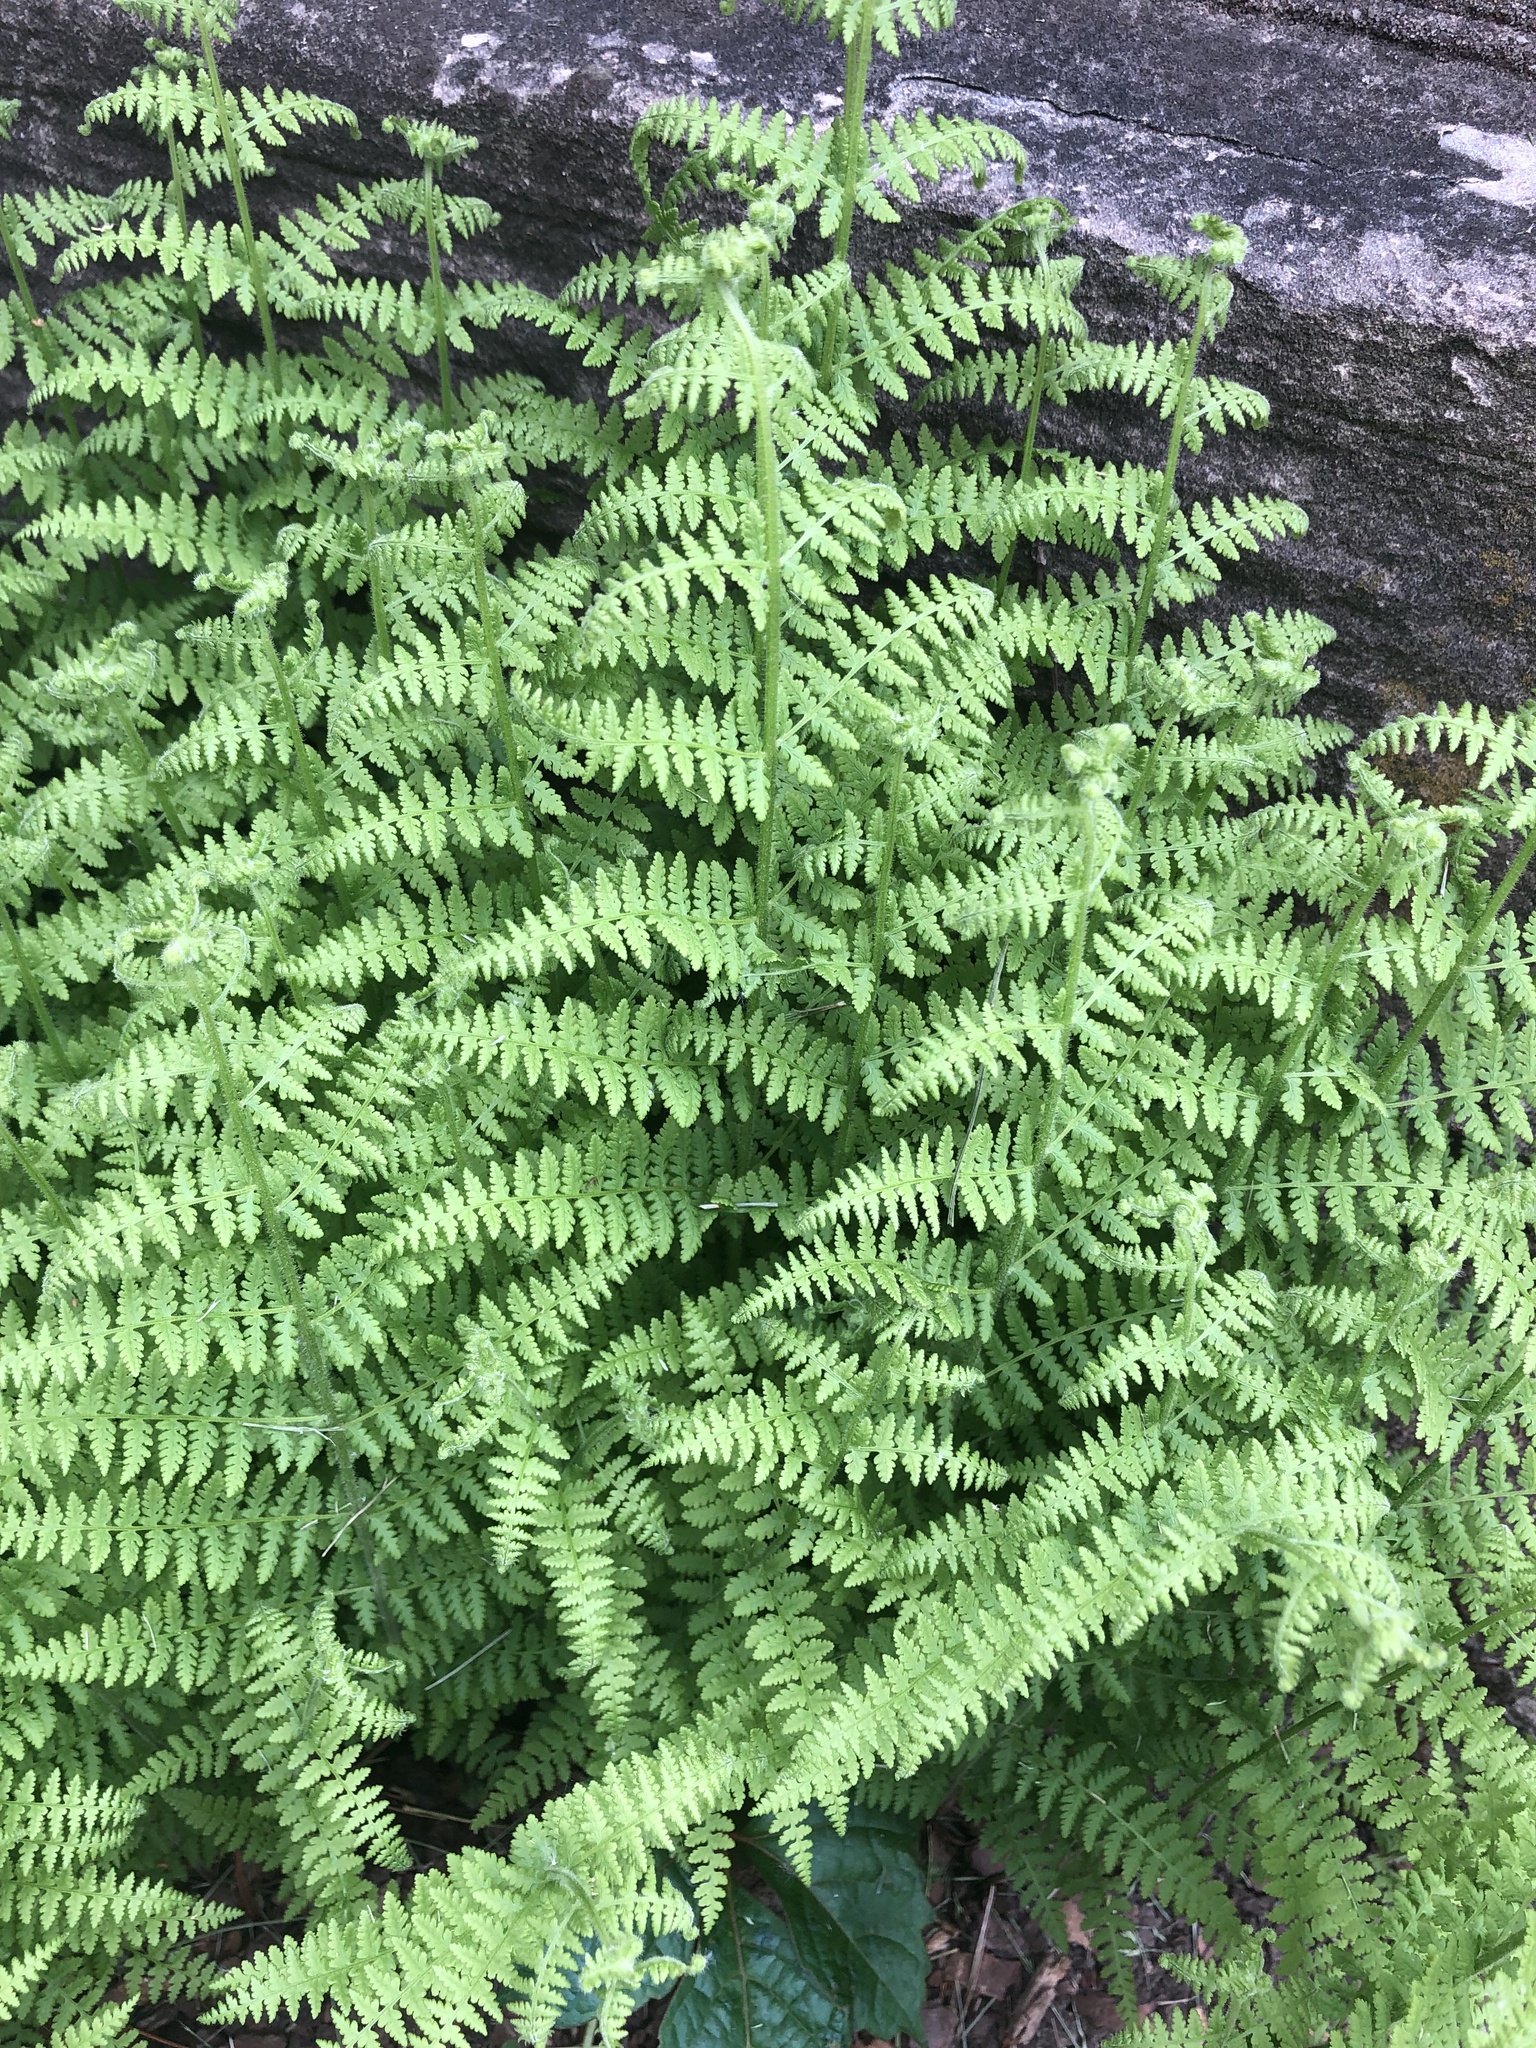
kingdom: Plantae
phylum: Tracheophyta
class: Polypodiopsida
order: Polypodiales
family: Dennstaedtiaceae
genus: Sitobolium
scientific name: Sitobolium punctilobum
